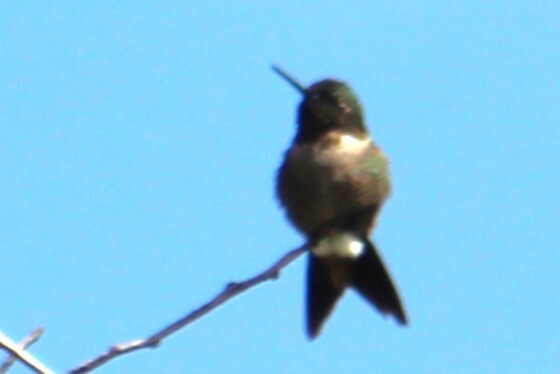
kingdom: Animalia
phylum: Chordata
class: Aves
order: Apodiformes
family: Trochilidae
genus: Archilochus
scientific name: Archilochus colubris
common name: Ruby-throated hummingbird
